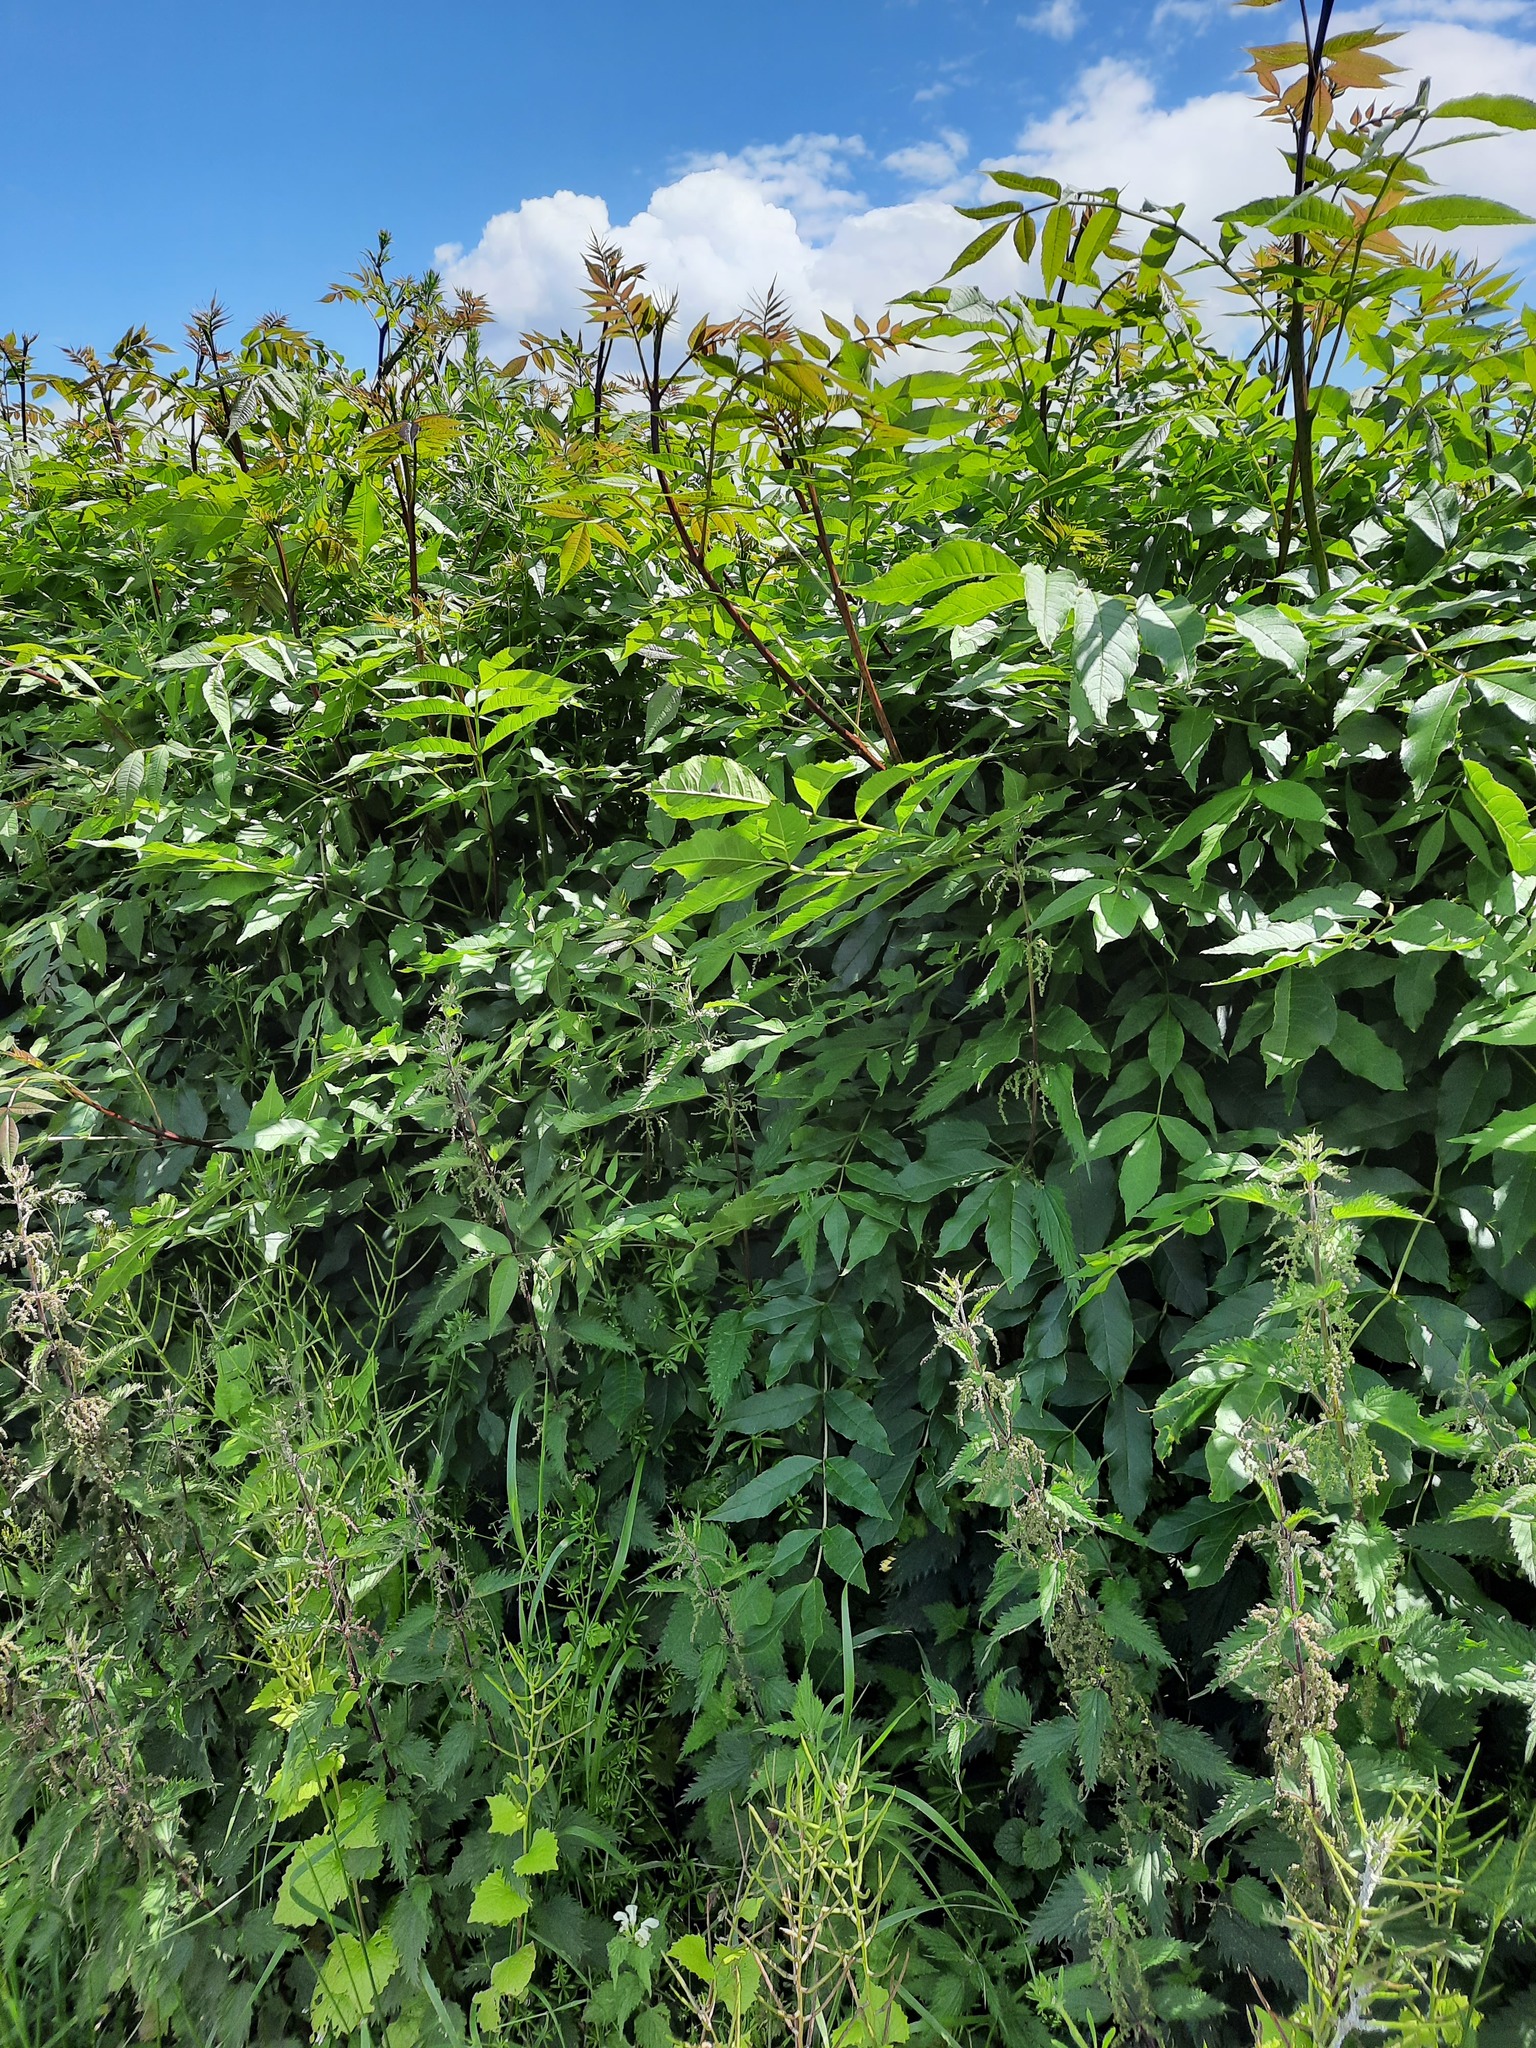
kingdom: Plantae
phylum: Tracheophyta
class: Magnoliopsida
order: Lamiales
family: Oleaceae
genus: Fraxinus
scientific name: Fraxinus excelsior
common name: European ash
